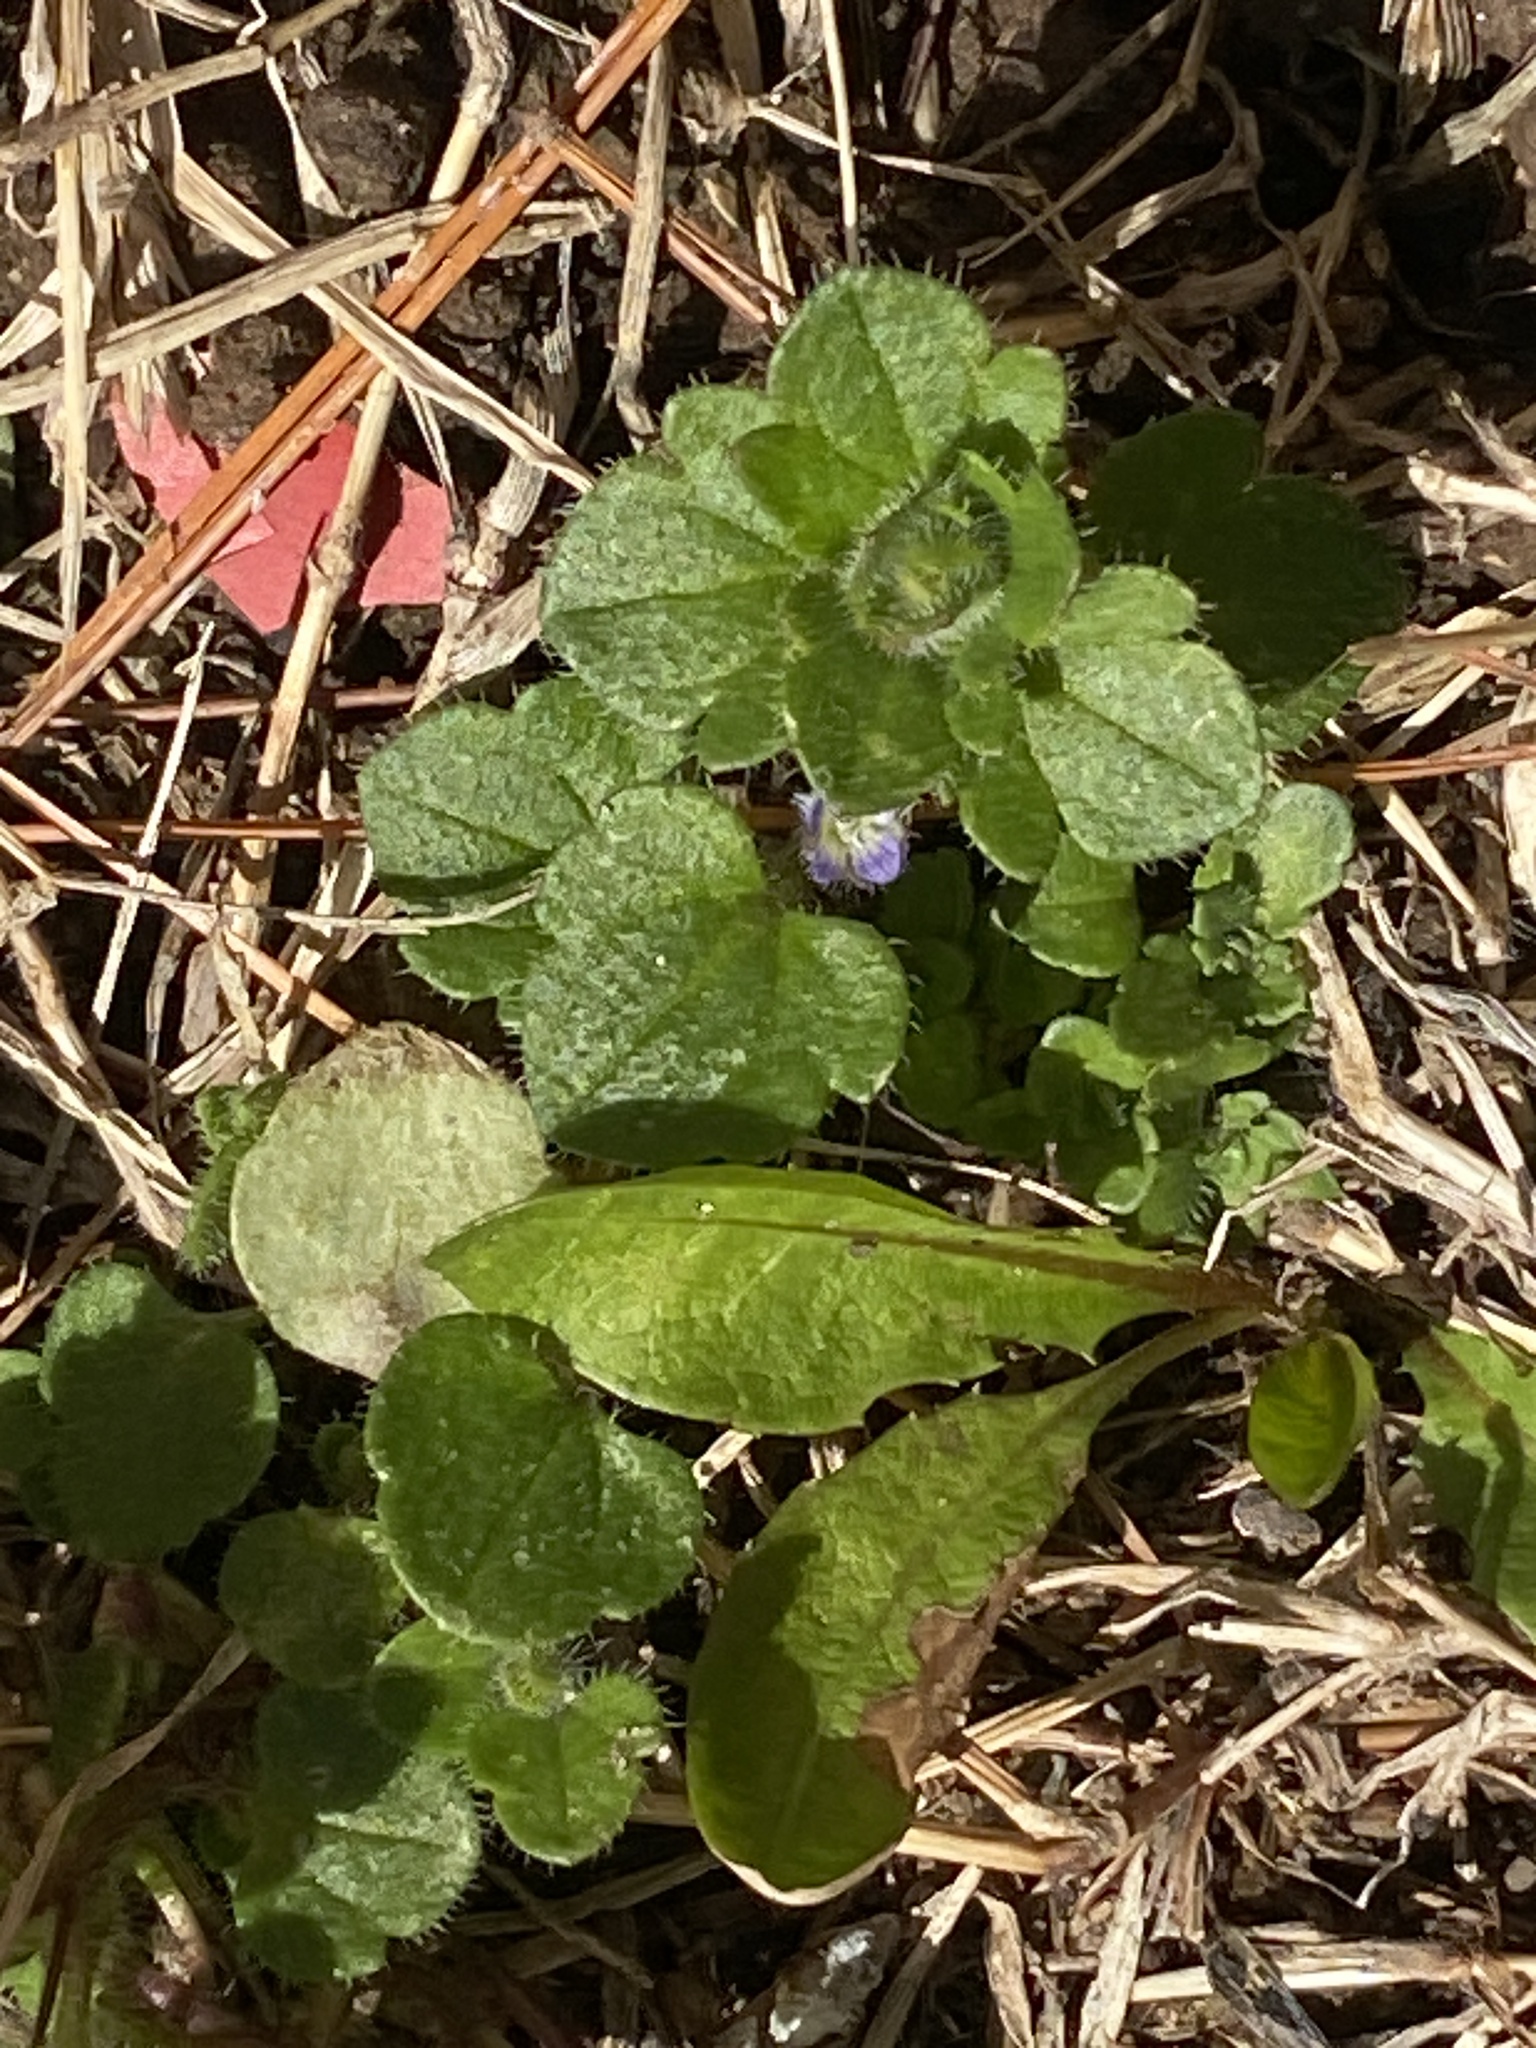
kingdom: Plantae
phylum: Tracheophyta
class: Magnoliopsida
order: Lamiales
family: Plantaginaceae
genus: Veronica
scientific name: Veronica hederifolia
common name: Ivy-leaved speedwell
